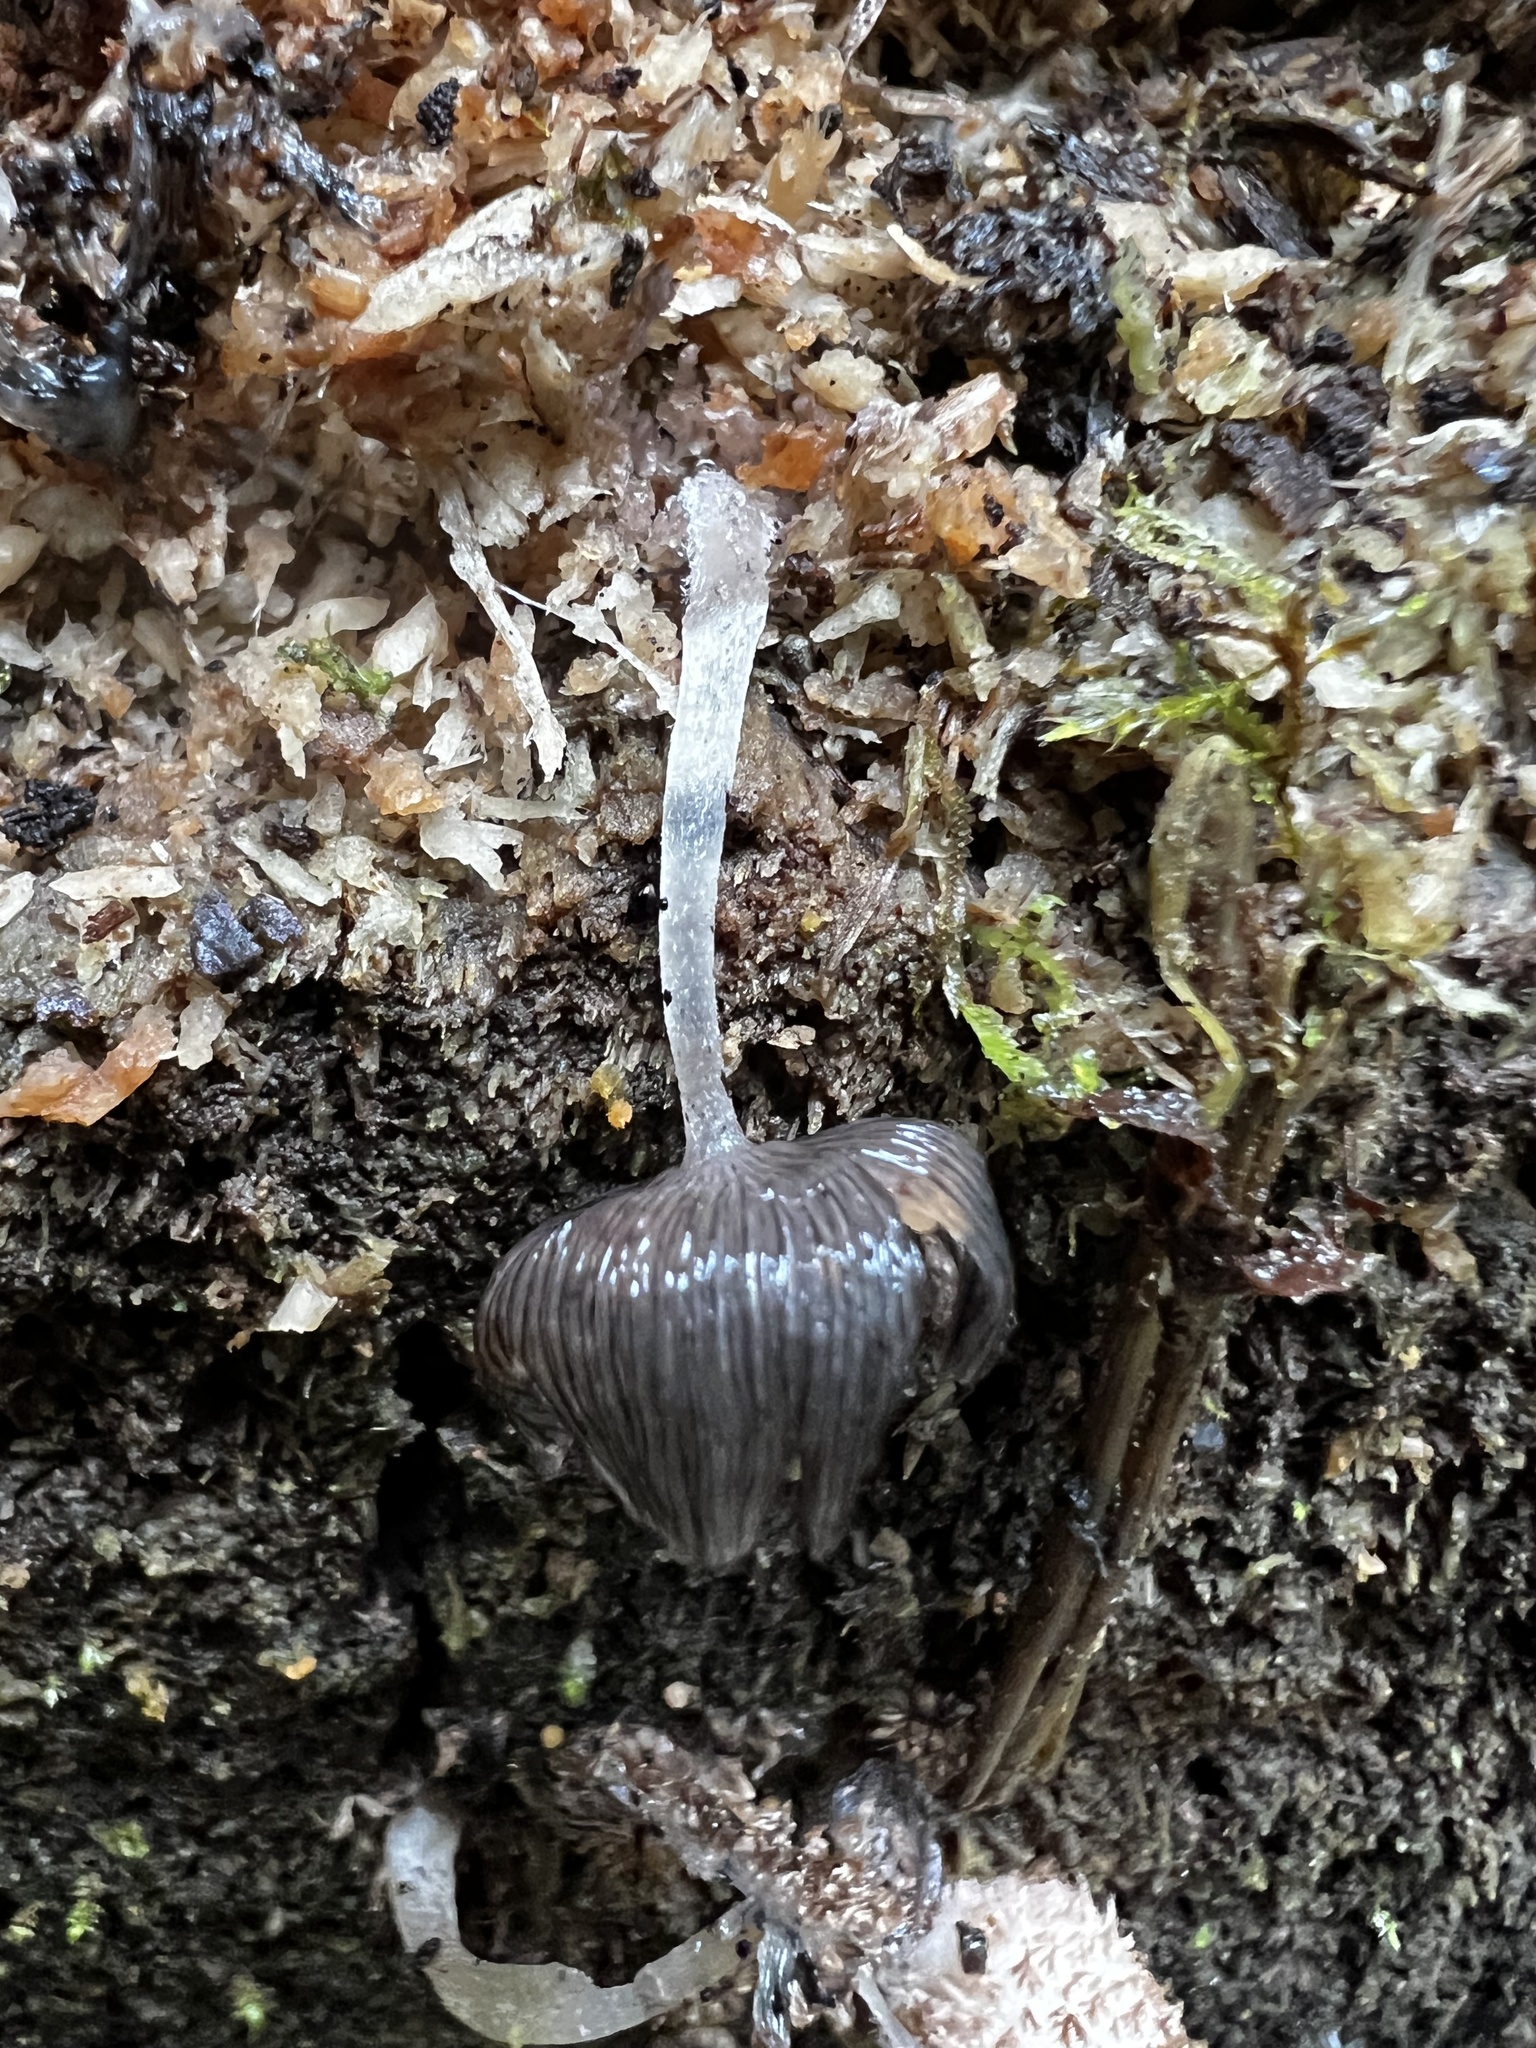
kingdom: Fungi
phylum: Basidiomycota
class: Agaricomycetes
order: Agaricales
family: Psathyrellaceae
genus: Coprinopsis
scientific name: Coprinopsis lagopus
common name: Hare'sfoot inkcap
